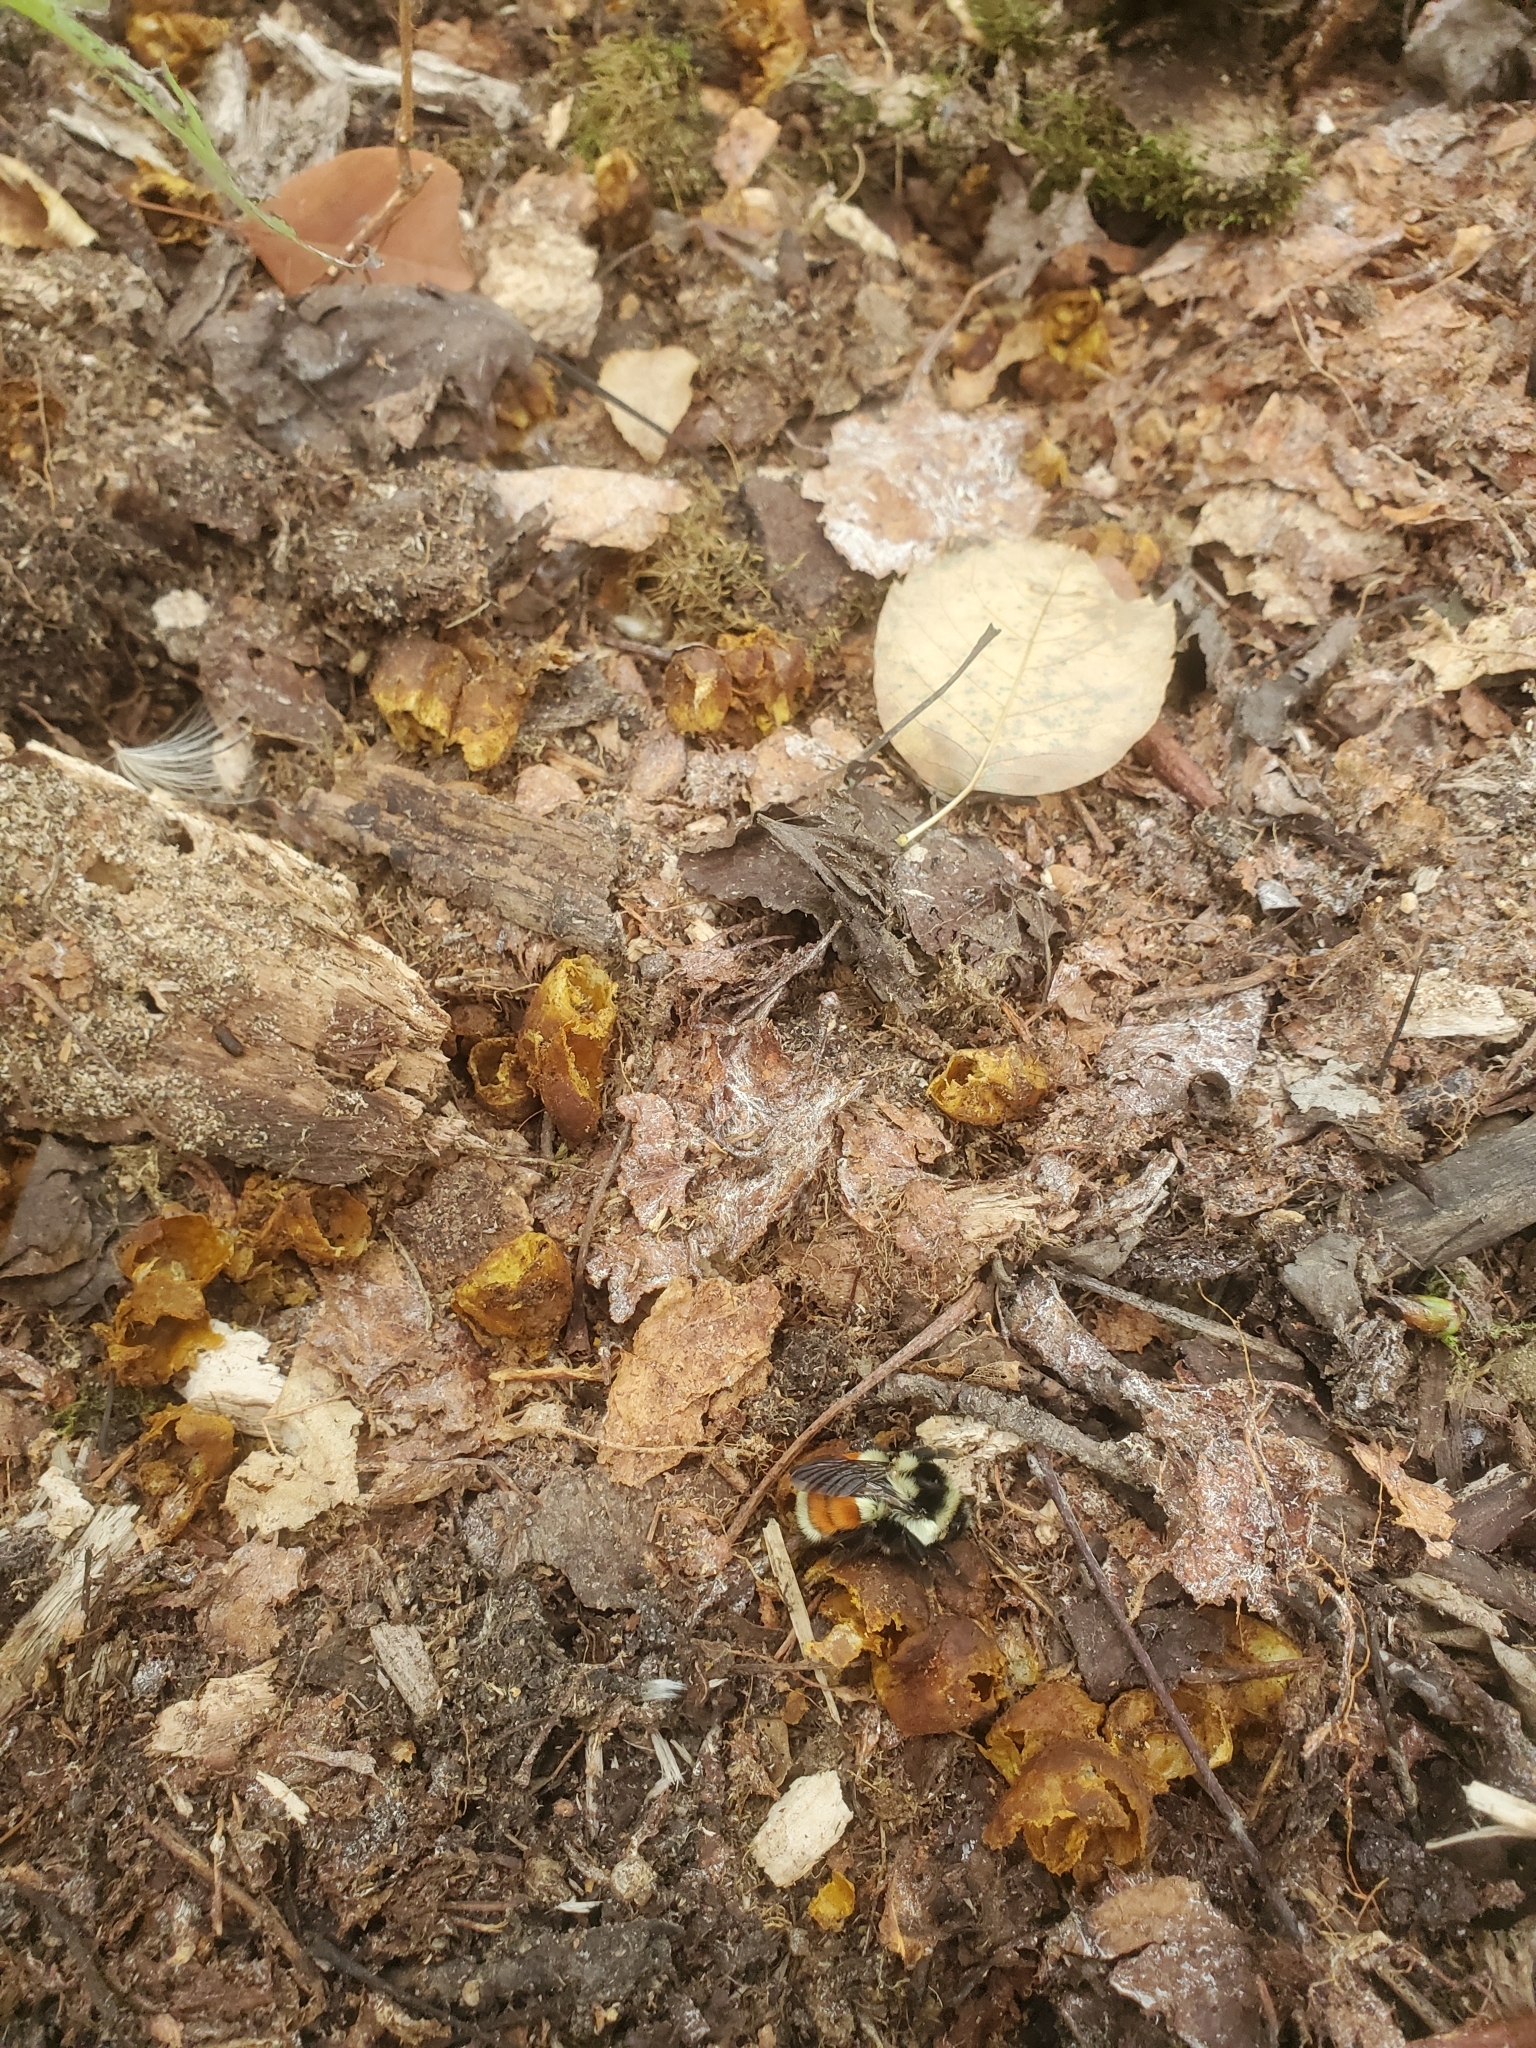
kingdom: Animalia
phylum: Arthropoda
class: Insecta
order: Hymenoptera
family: Apidae
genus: Bombus
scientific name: Bombus ternarius
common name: Tri-colored bumble bee
